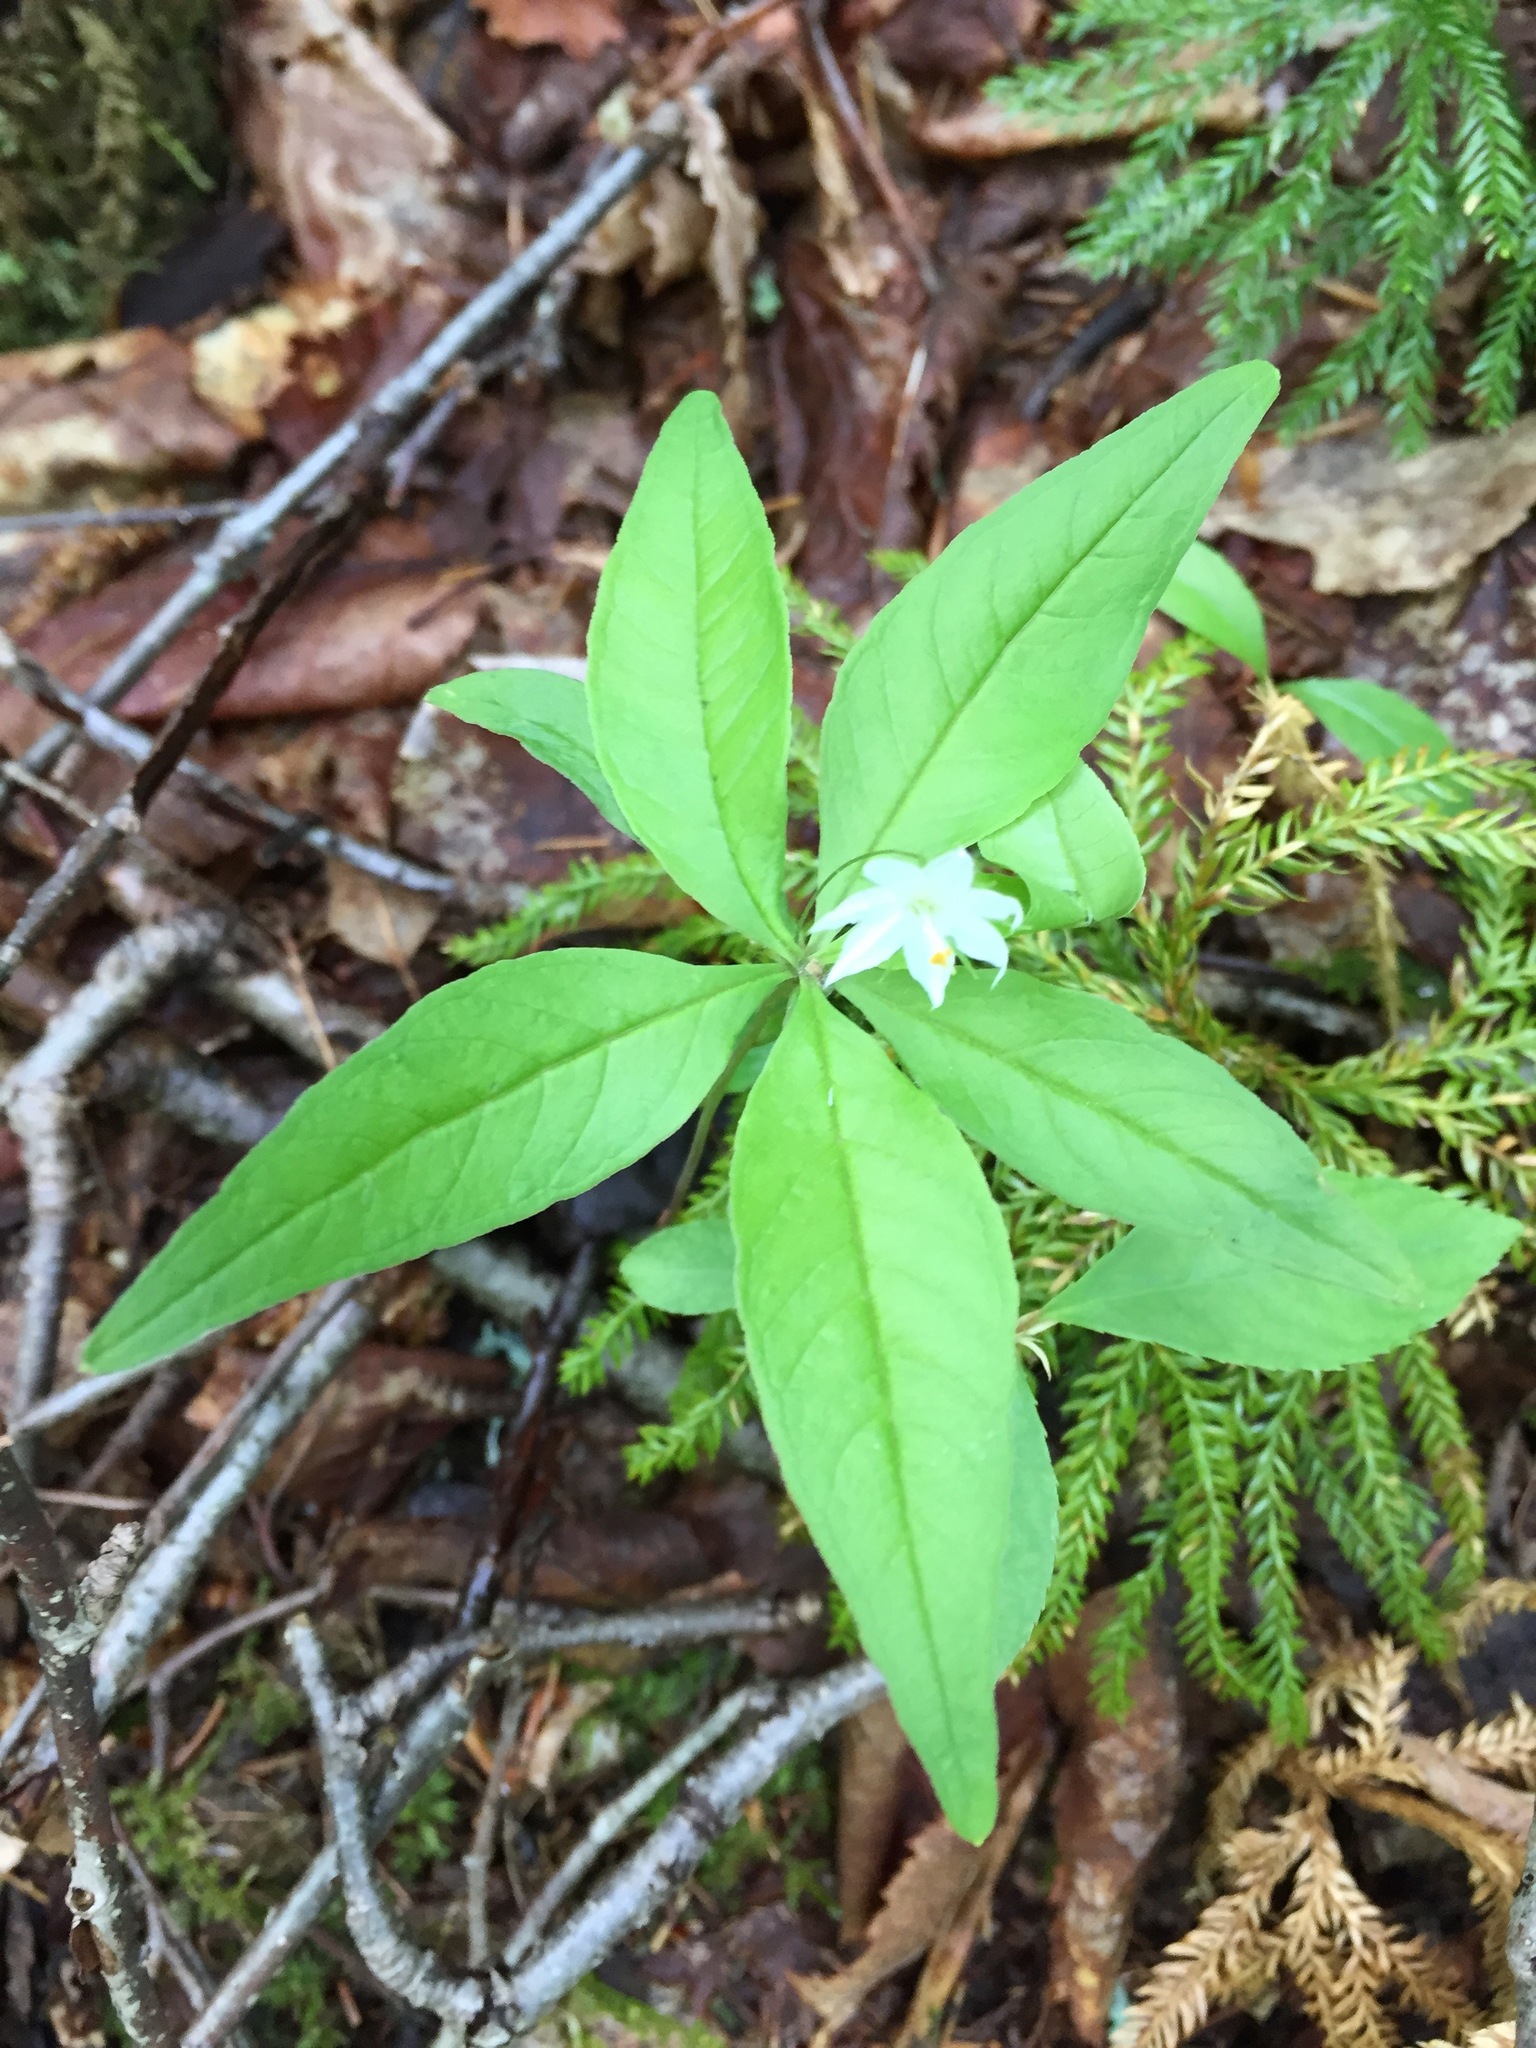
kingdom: Plantae
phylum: Tracheophyta
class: Magnoliopsida
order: Ericales
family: Primulaceae
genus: Lysimachia
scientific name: Lysimachia borealis
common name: American starflower
